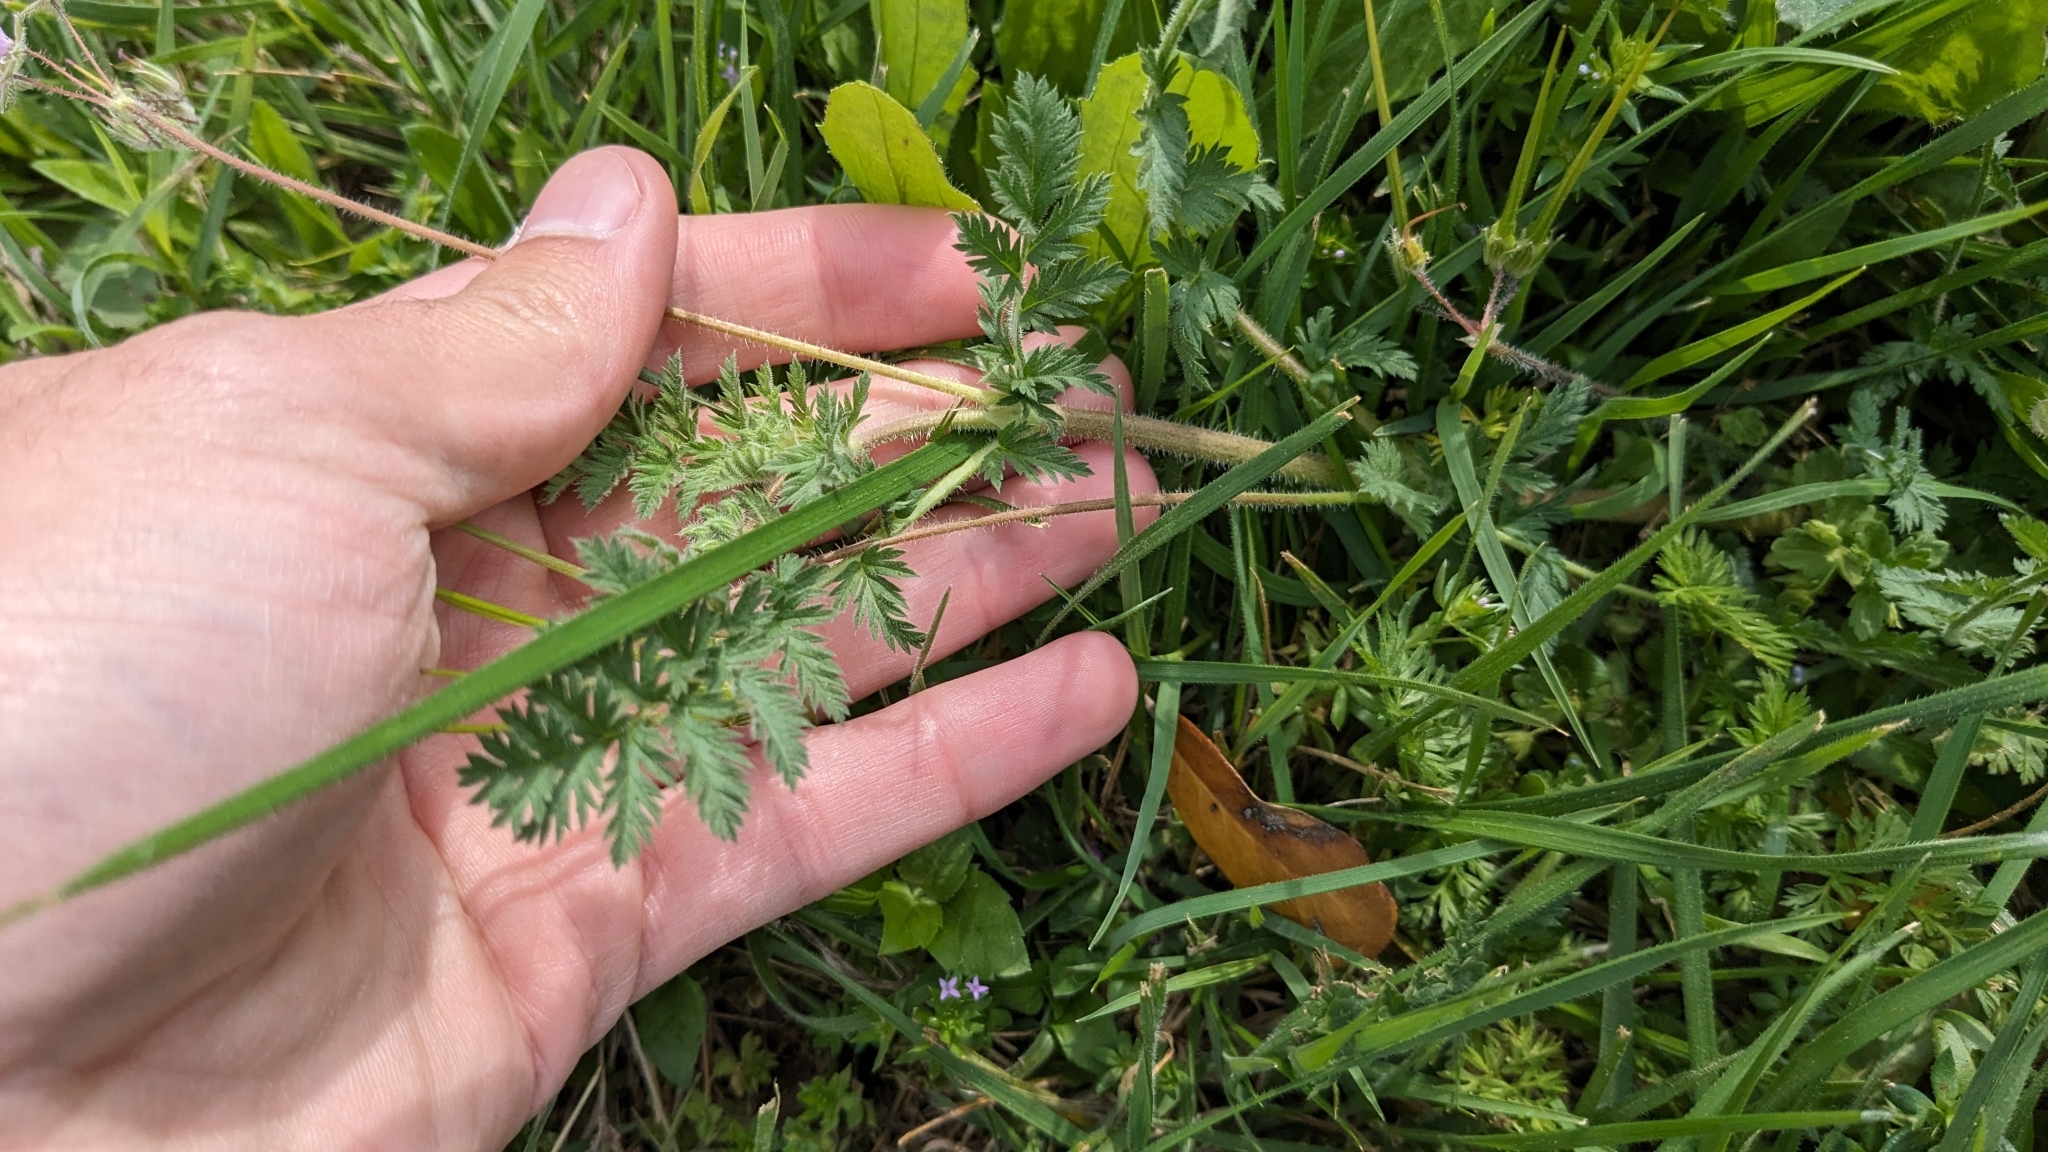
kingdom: Plantae
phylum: Tracheophyta
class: Magnoliopsida
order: Geraniales
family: Geraniaceae
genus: Erodium
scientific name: Erodium cicutarium
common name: Common stork's-bill
